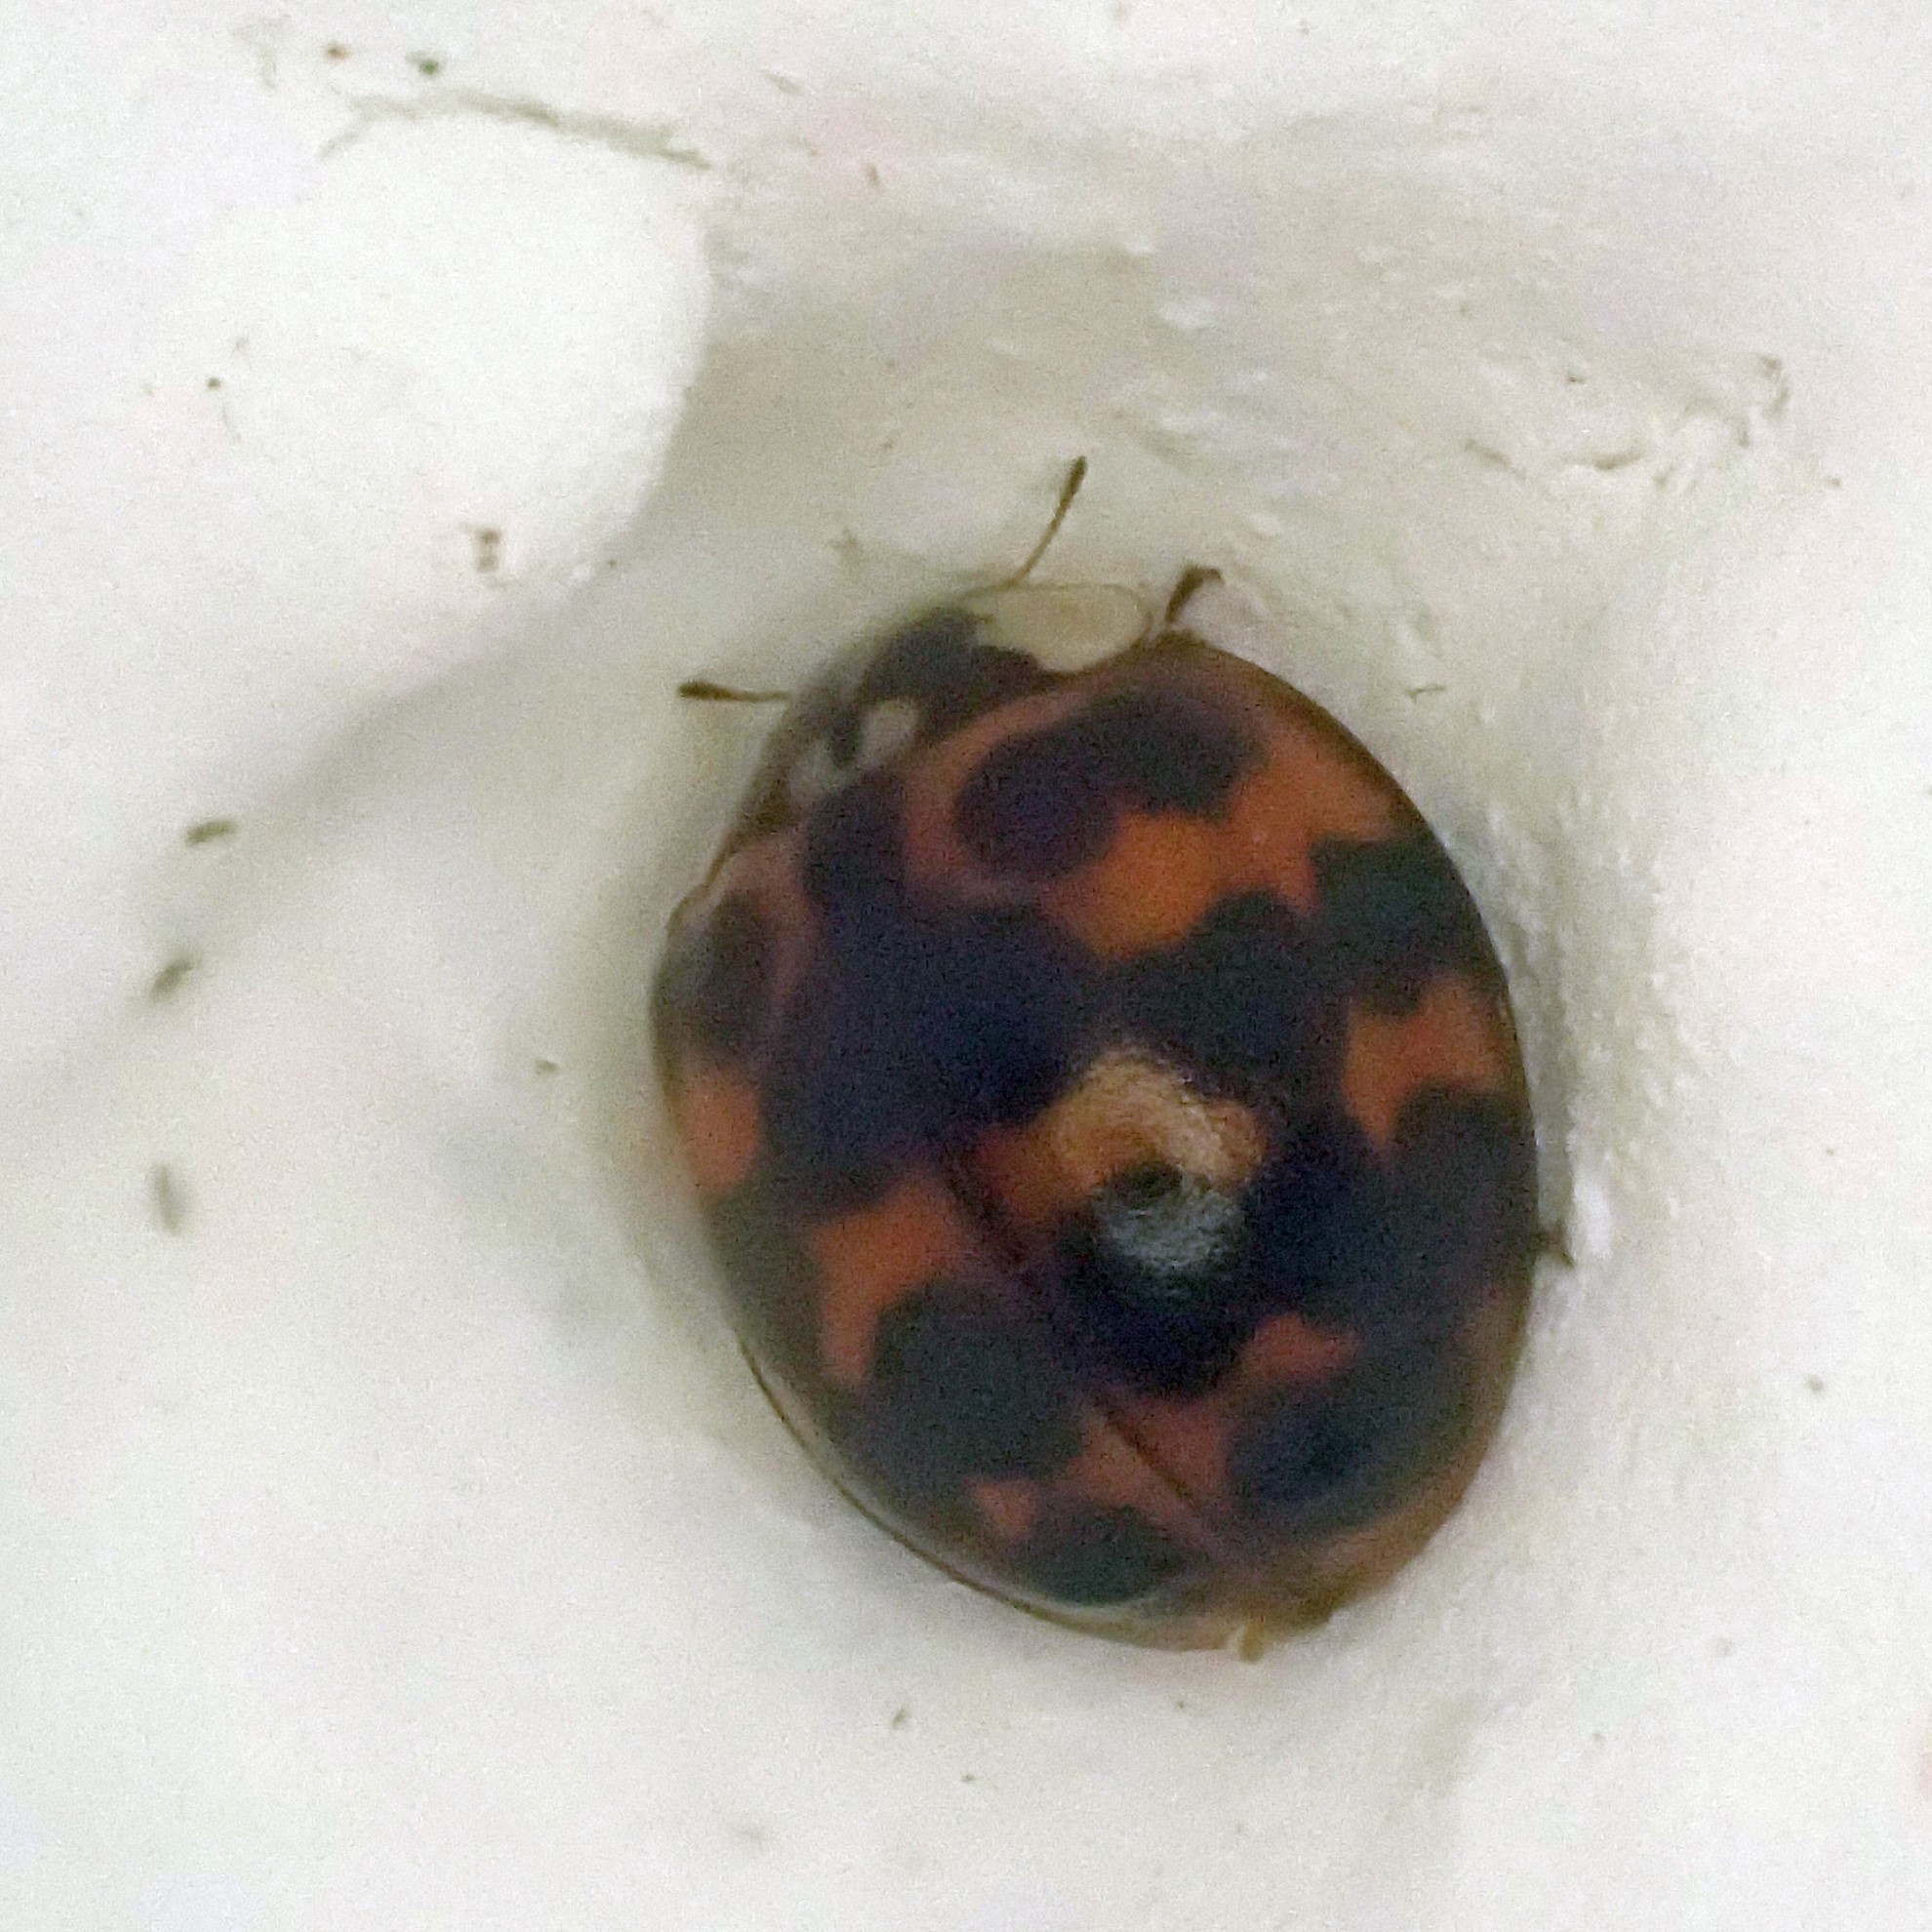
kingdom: Animalia
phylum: Arthropoda
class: Insecta
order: Coleoptera
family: Coccinellidae
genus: Harmonia
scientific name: Harmonia axyridis
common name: Harlequin ladybird
